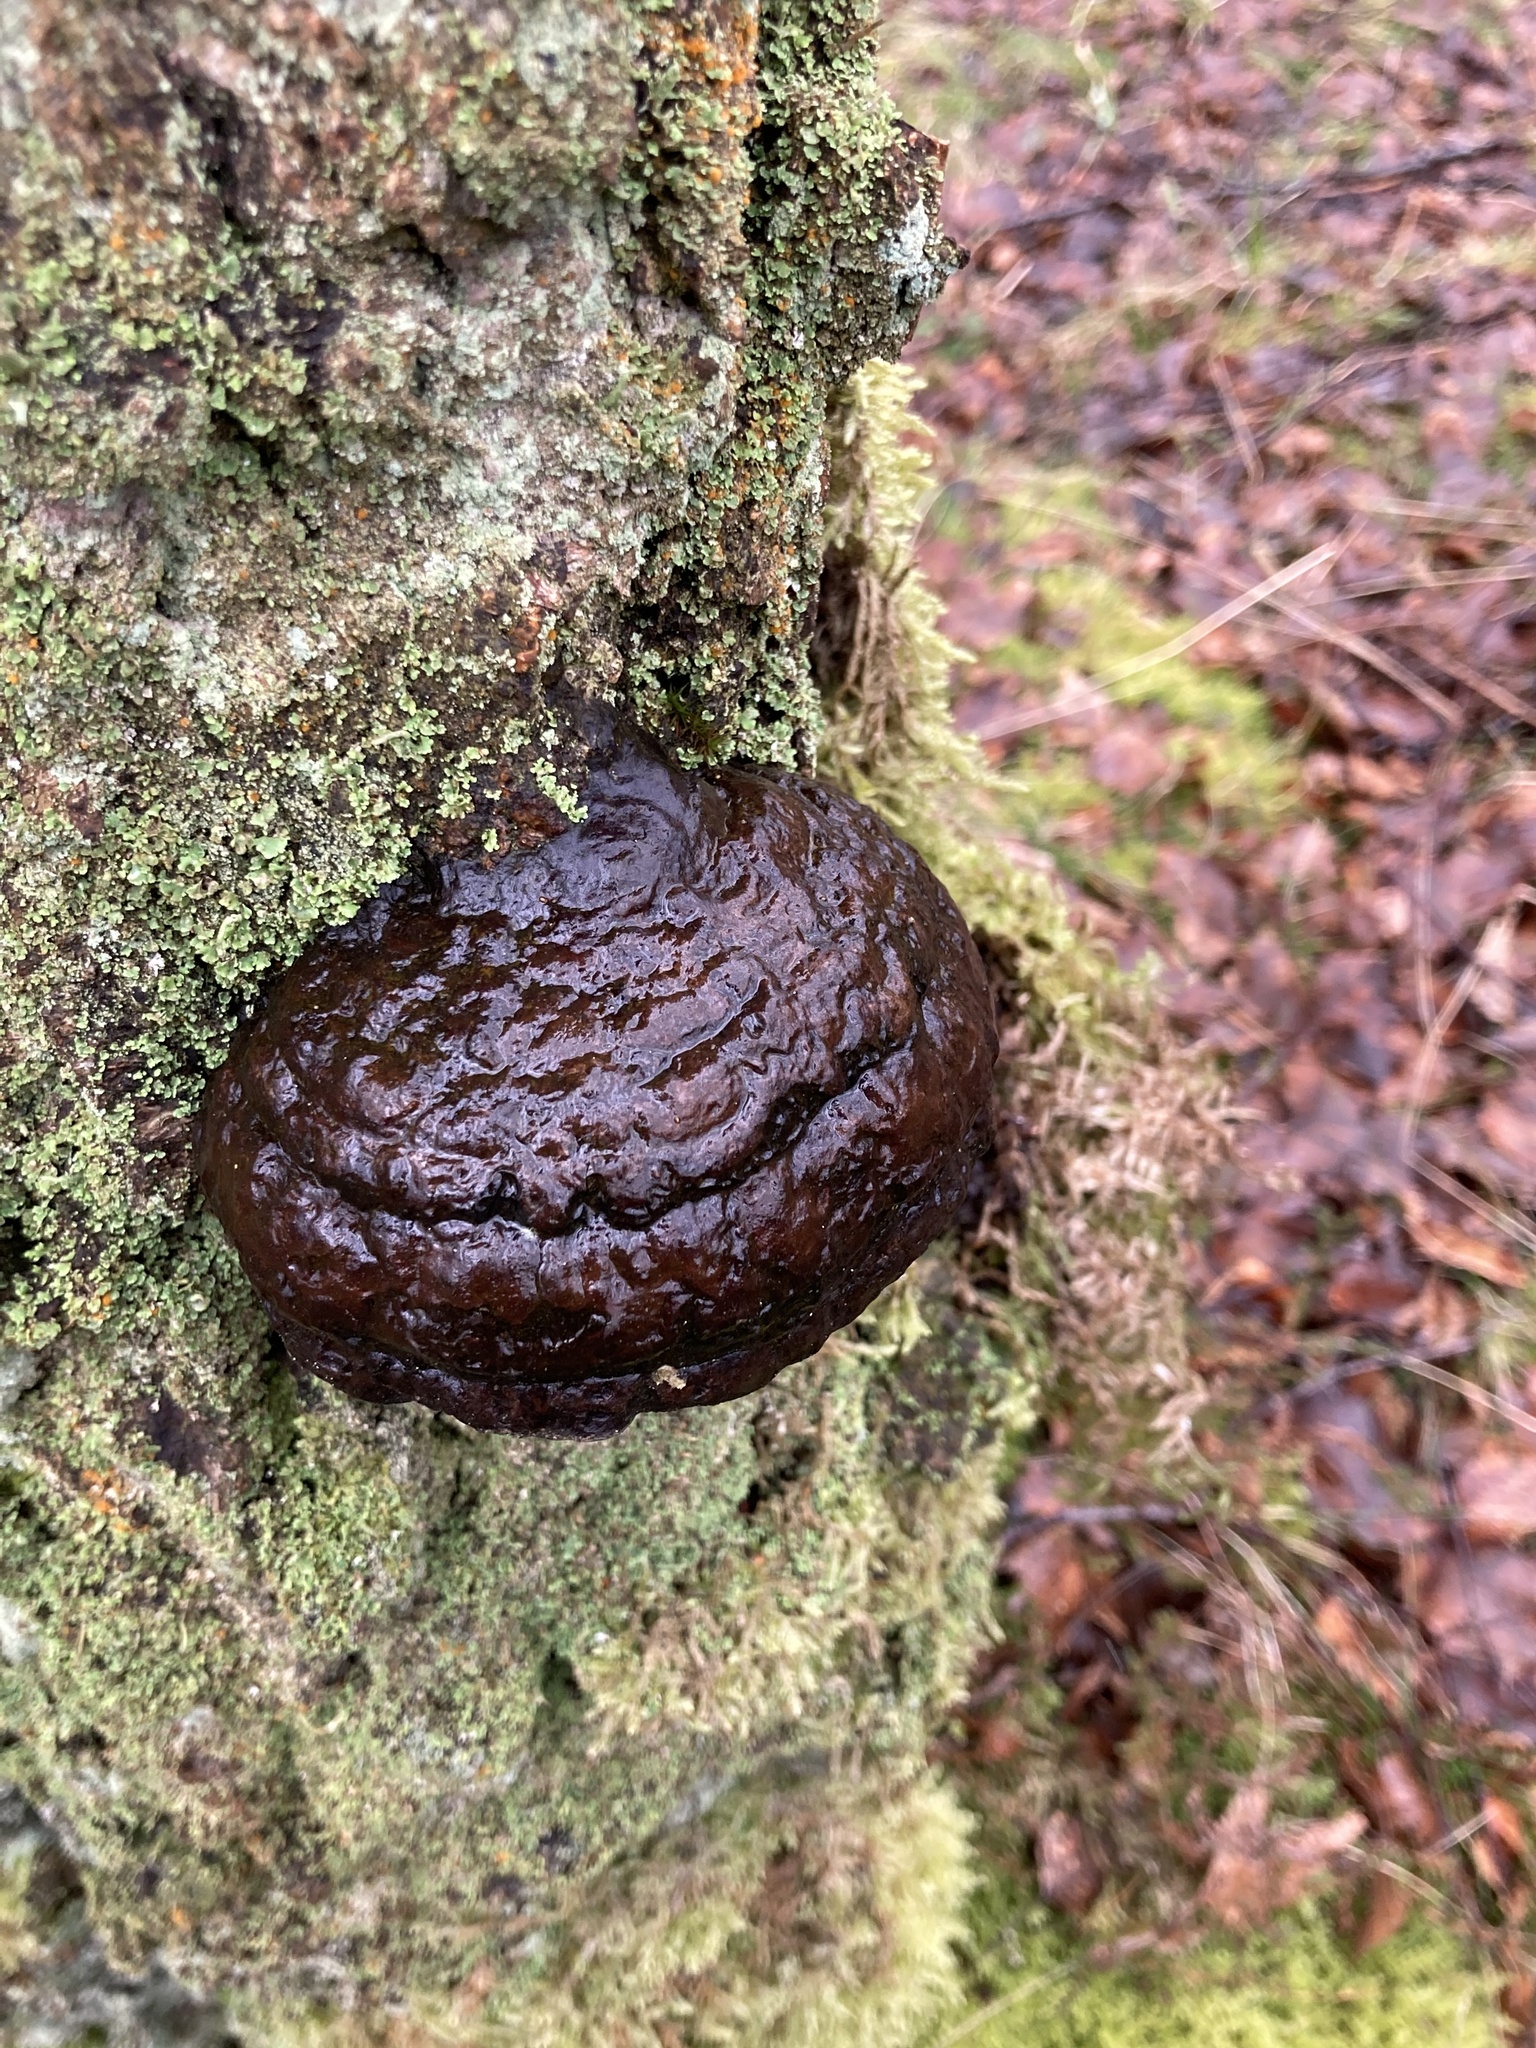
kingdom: Fungi
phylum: Basidiomycota
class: Agaricomycetes
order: Polyporales
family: Polyporaceae
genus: Fomes
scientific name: Fomes fomentarius
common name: Hoof fungus
